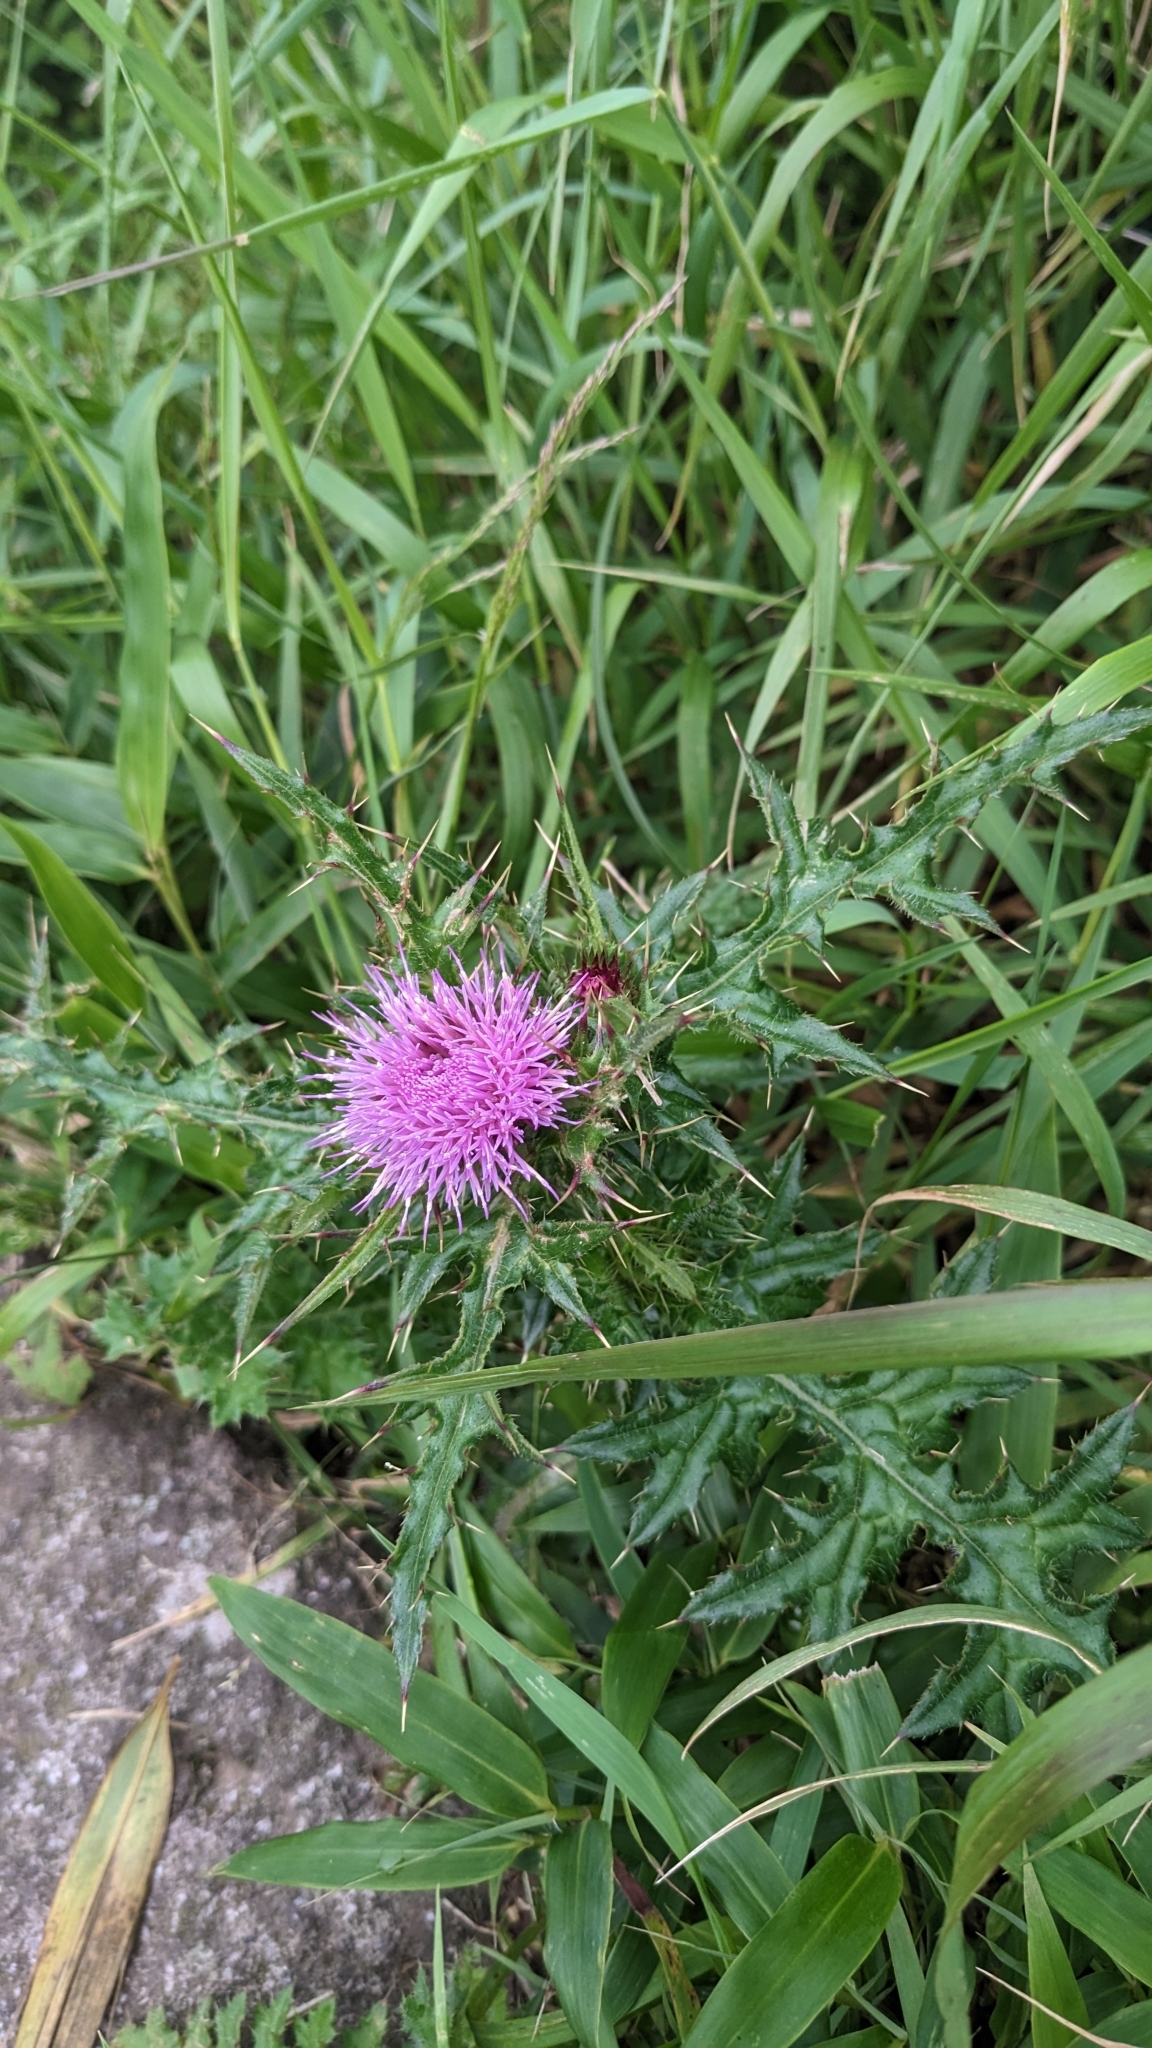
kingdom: Plantae
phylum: Tracheophyta
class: Magnoliopsida
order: Asterales
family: Asteraceae
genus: Cirsium
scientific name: Cirsium japonicum
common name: Japanese thistle
